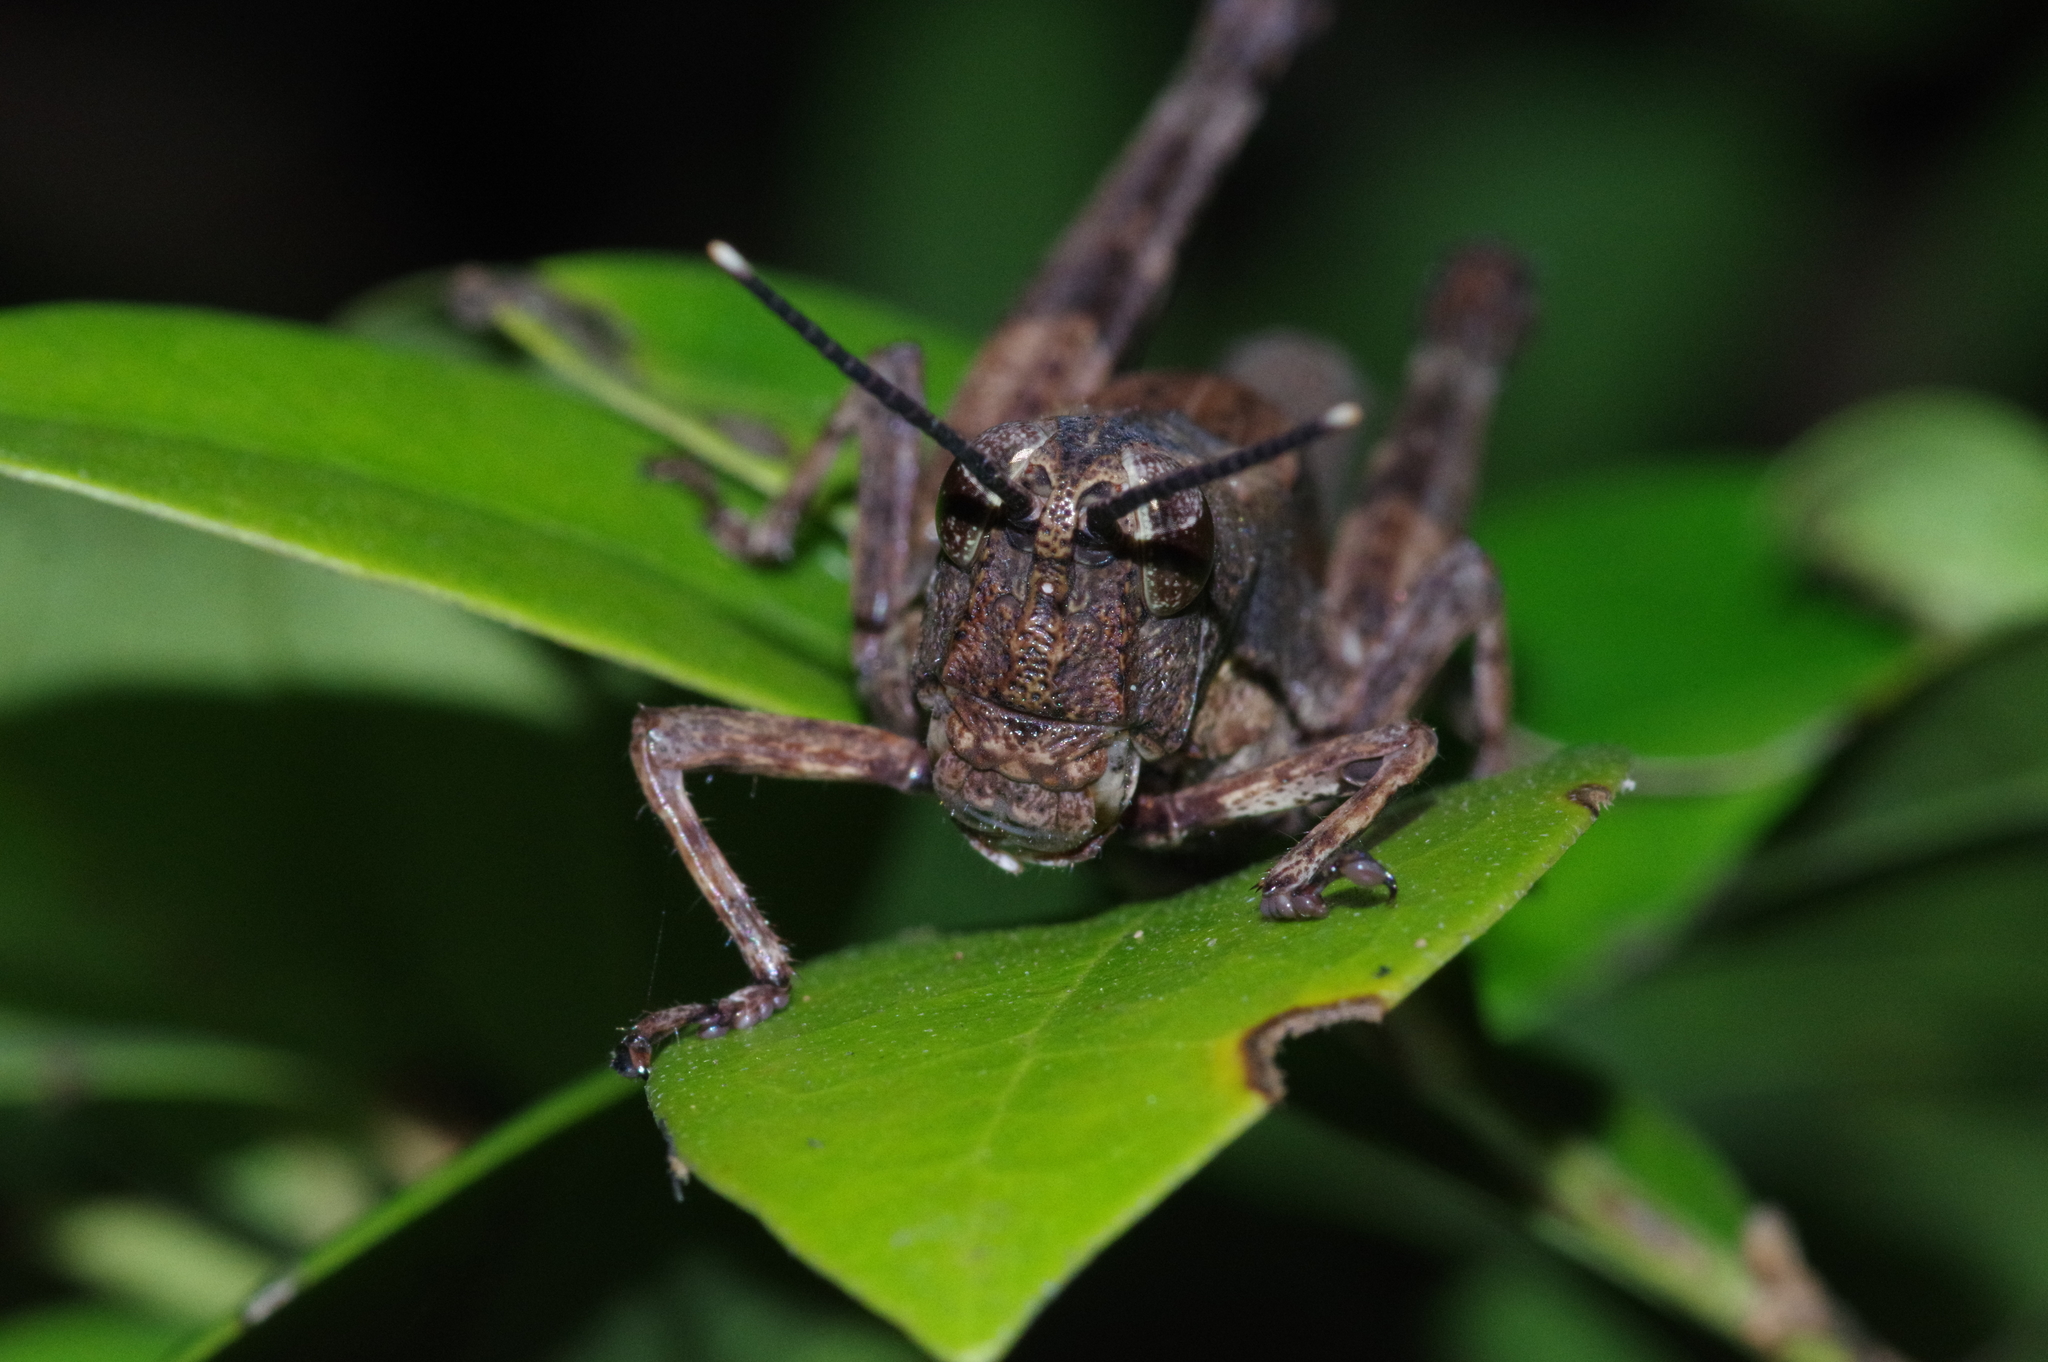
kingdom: Animalia
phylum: Arthropoda
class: Insecta
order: Orthoptera
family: Acrididae
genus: Traulia
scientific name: Traulia ornata
